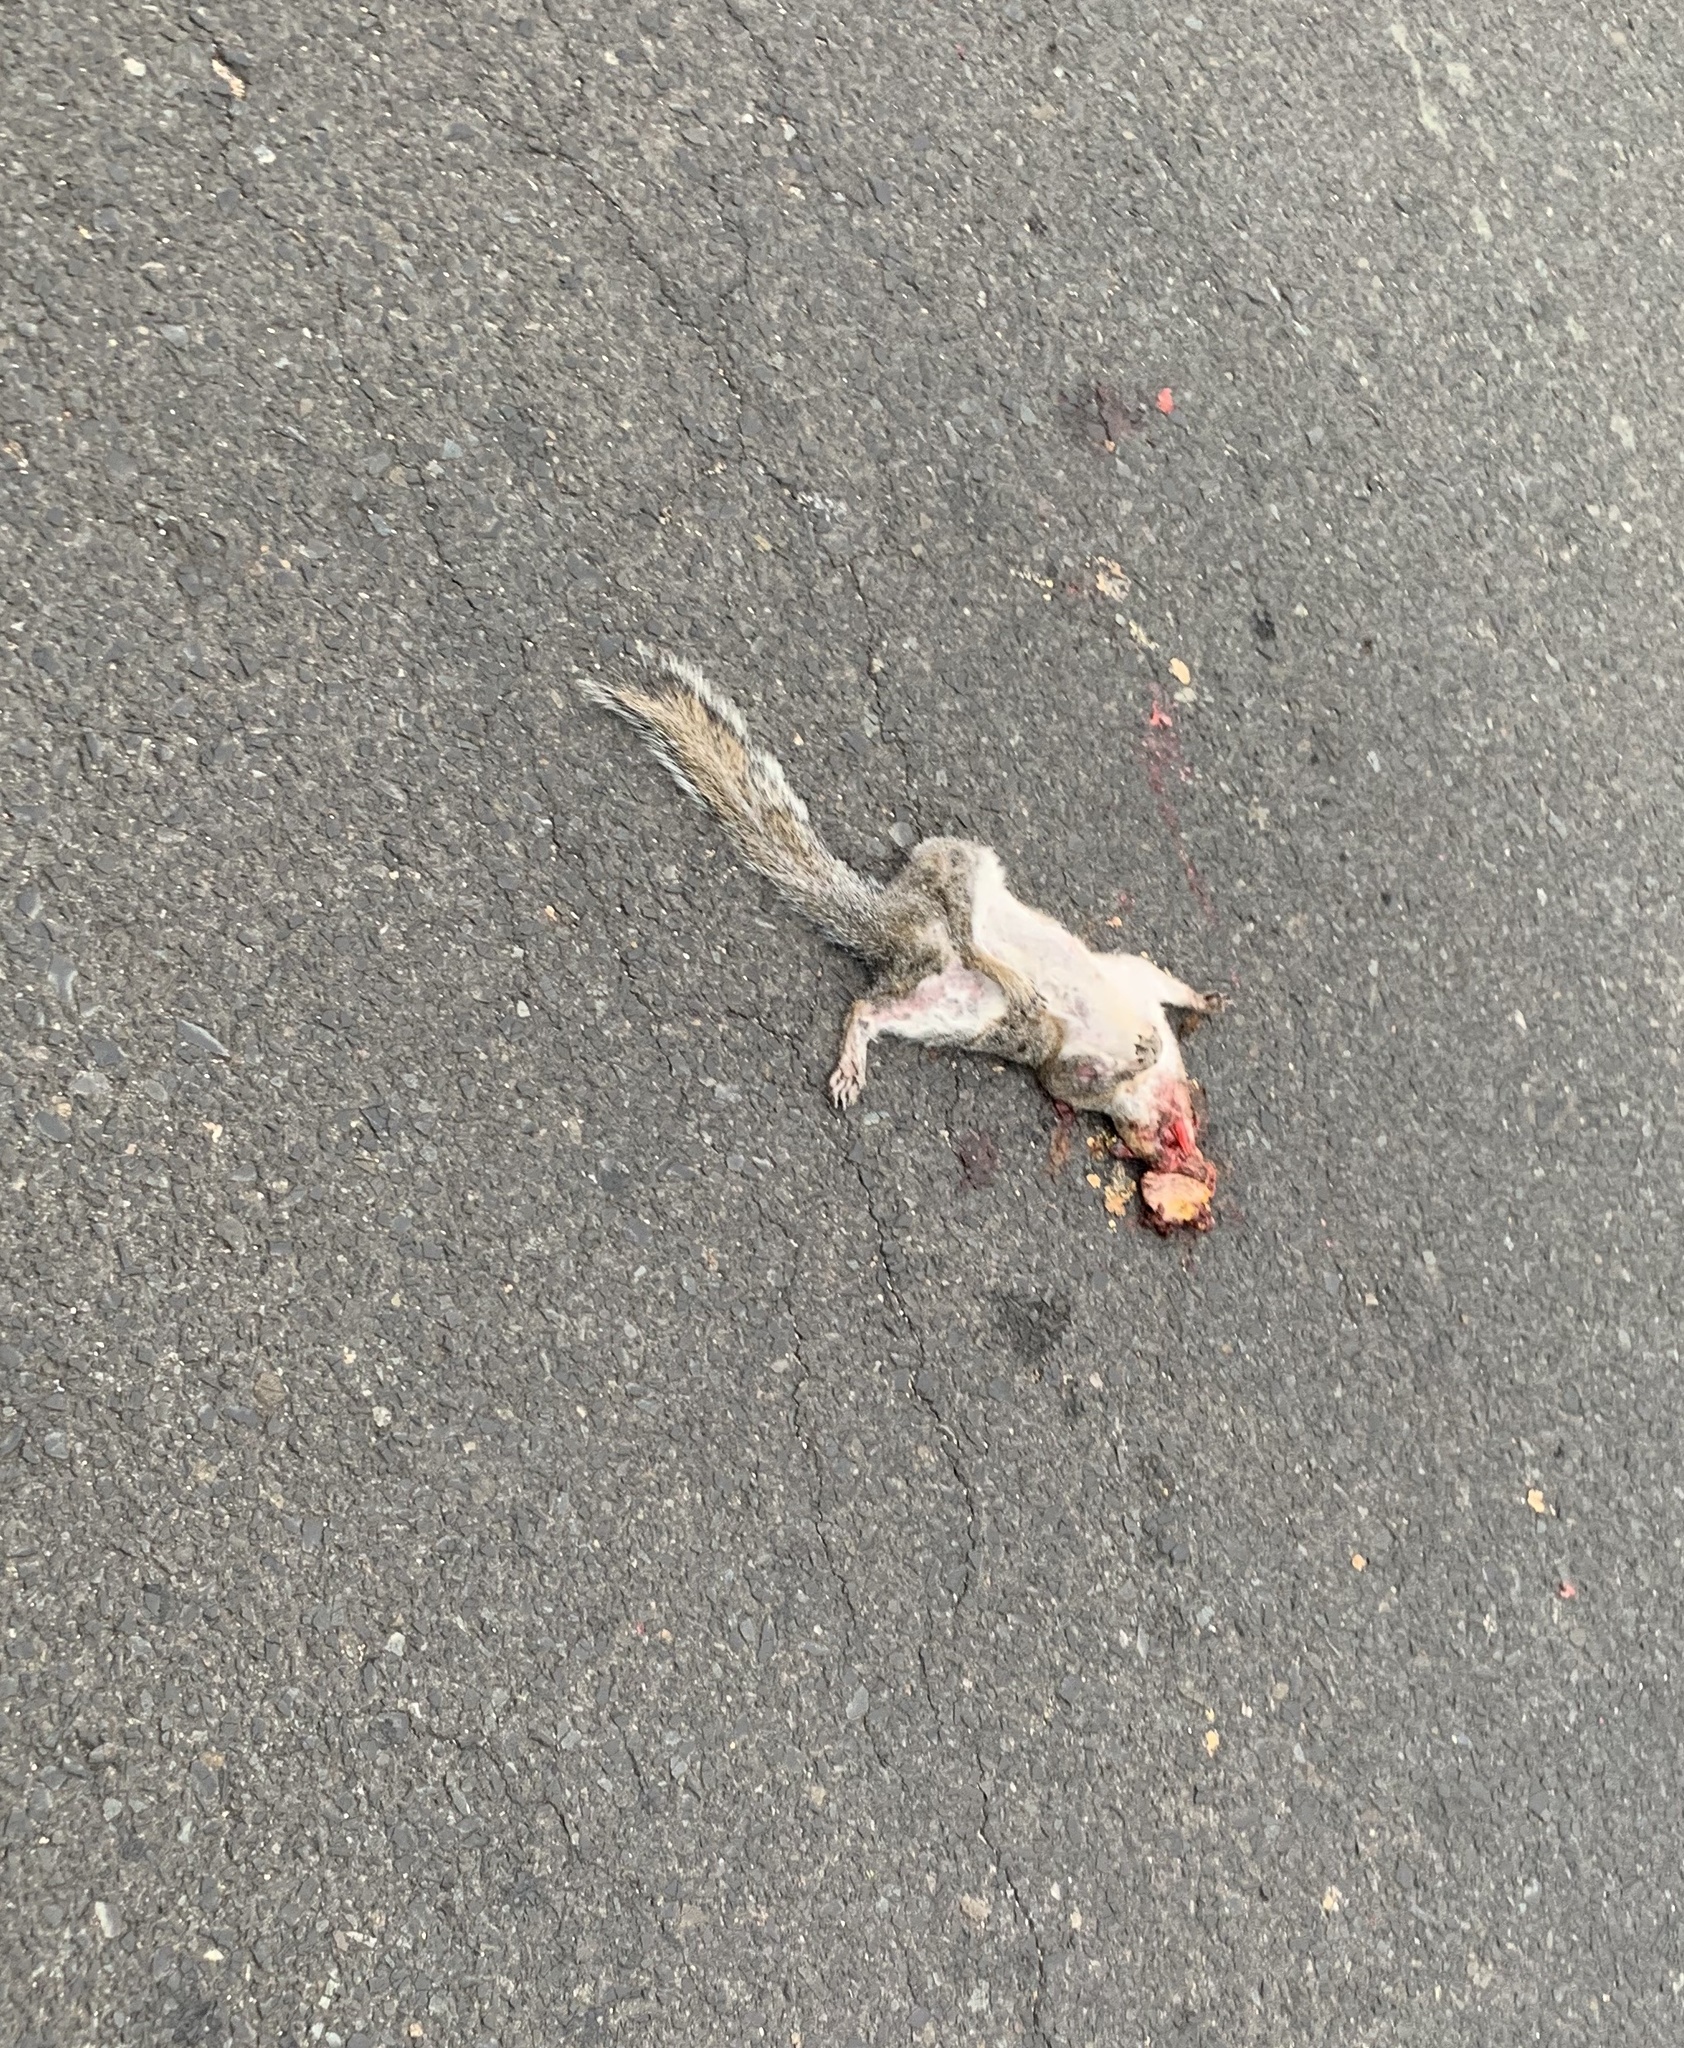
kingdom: Animalia
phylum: Chordata
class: Mammalia
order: Rodentia
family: Sciuridae
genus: Sciurus
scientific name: Sciurus carolinensis
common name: Eastern gray squirrel
